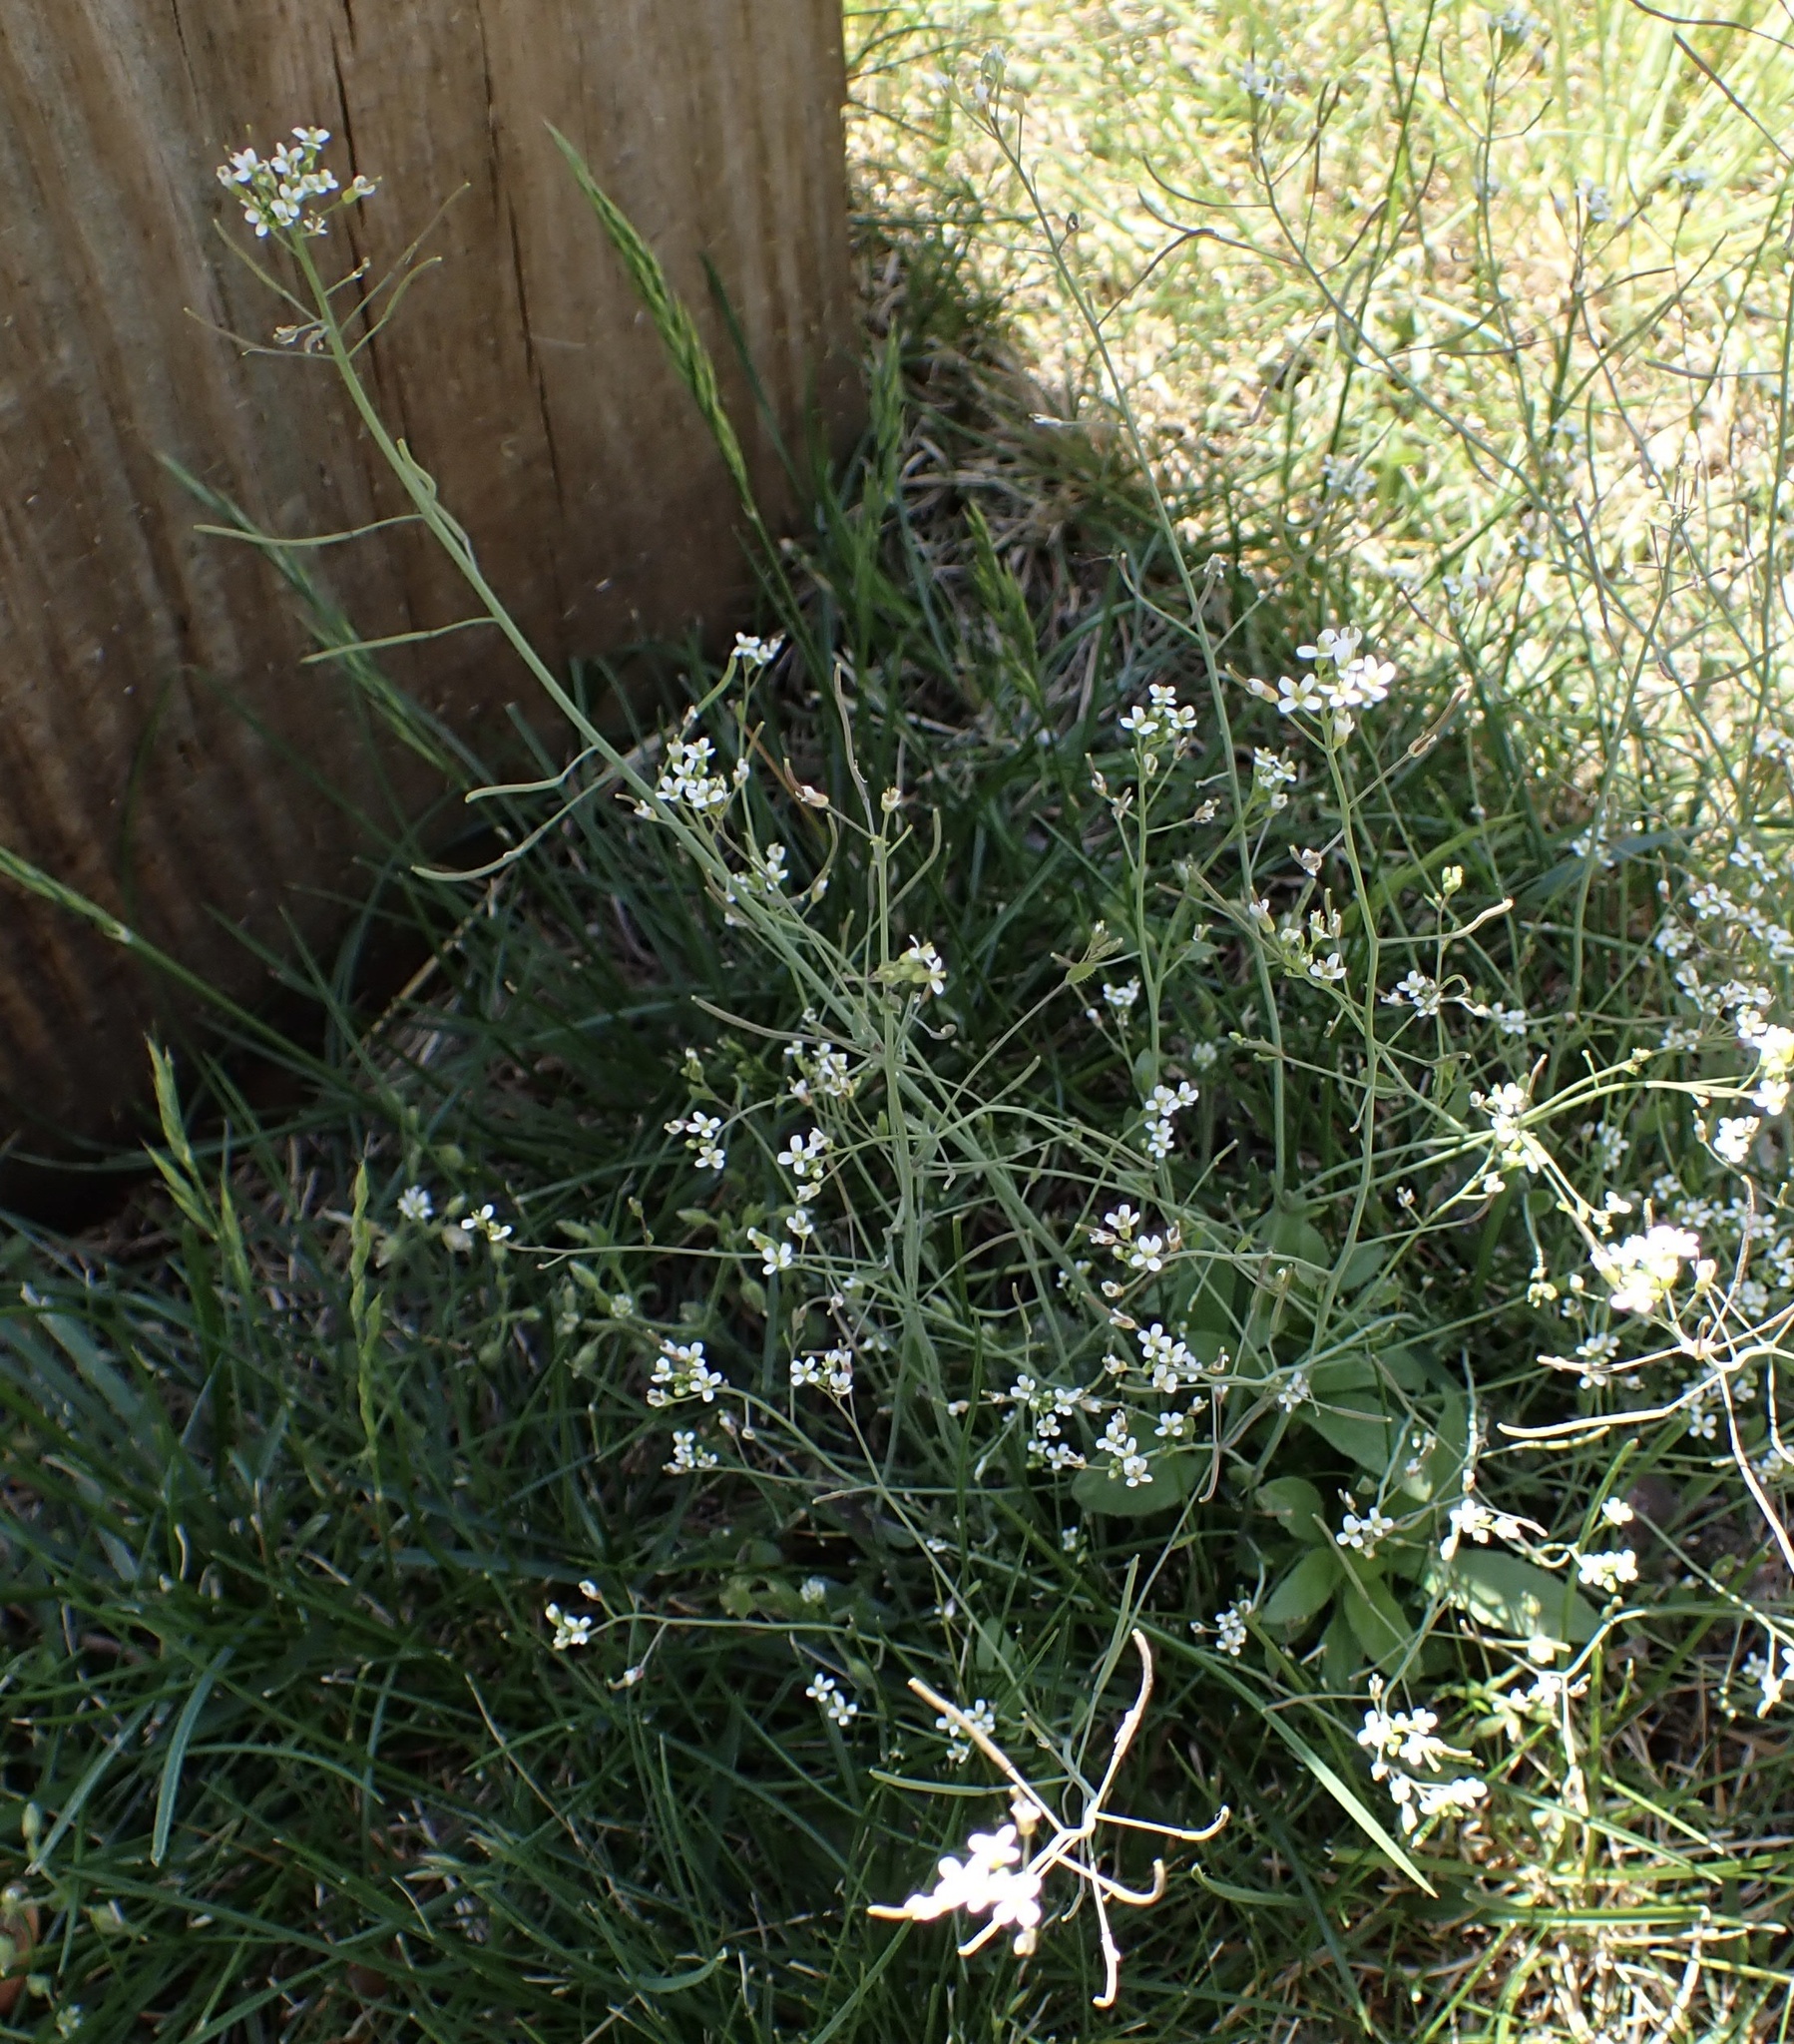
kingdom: Plantae
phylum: Tracheophyta
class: Magnoliopsida
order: Brassicales
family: Brassicaceae
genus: Arabidopsis
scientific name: Arabidopsis thaliana
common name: Thale cress
